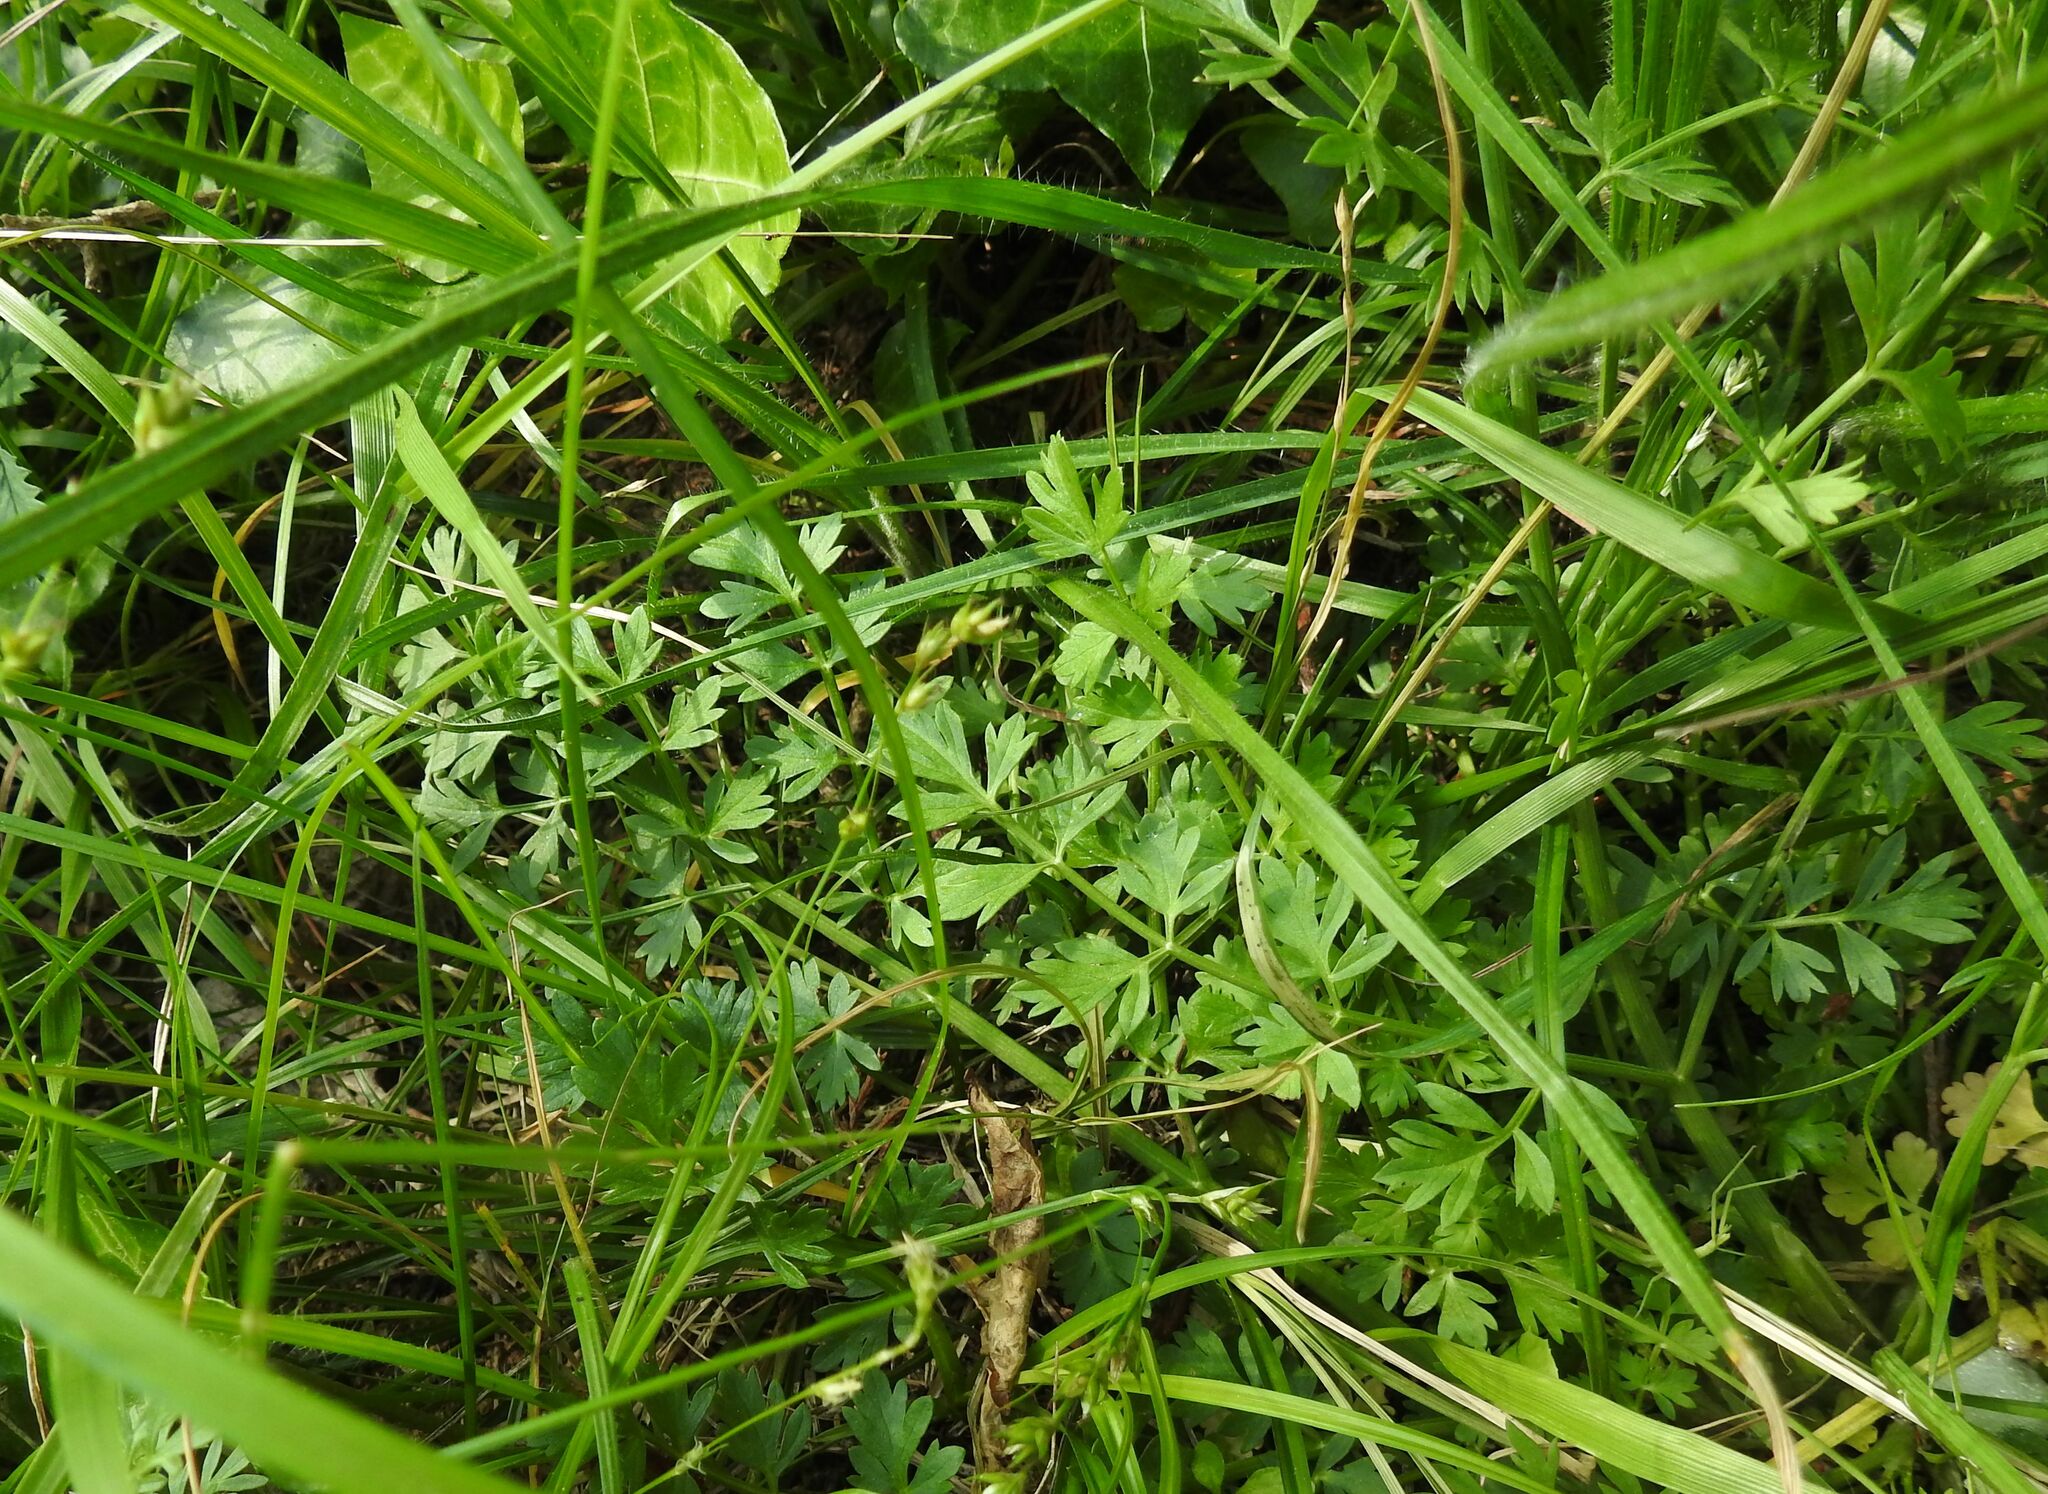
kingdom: Plantae
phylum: Tracheophyta
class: Magnoliopsida
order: Apiales
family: Apiaceae
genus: Oenanthe
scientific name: Oenanthe pimpinelloides
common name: Corky-fruited water-dropwort
